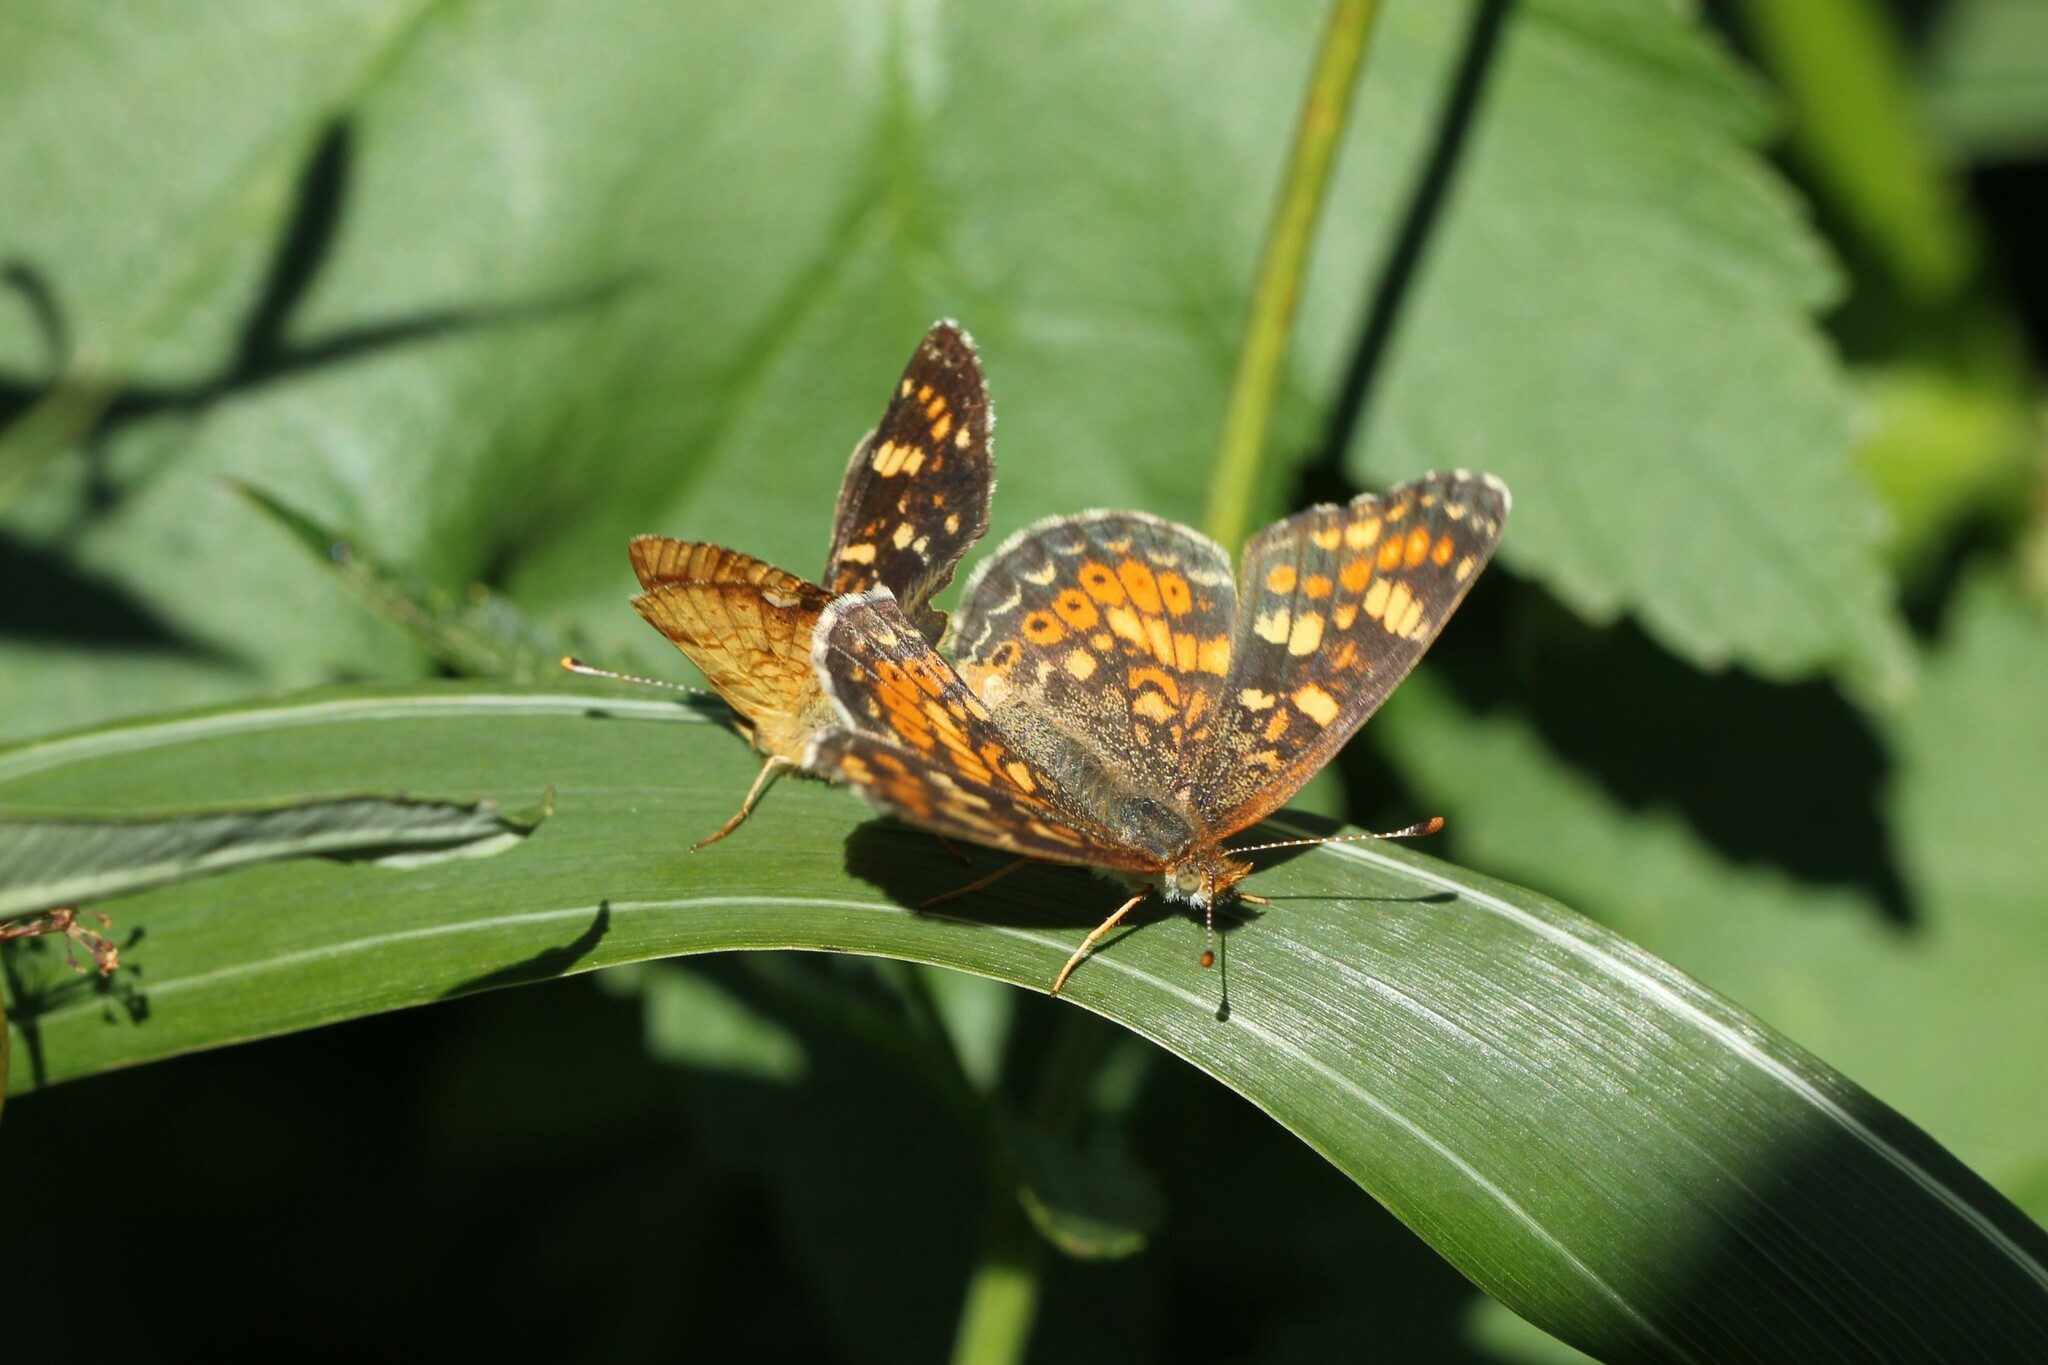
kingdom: Animalia
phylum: Arthropoda
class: Insecta
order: Lepidoptera
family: Nymphalidae
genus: Phyciodes
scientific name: Phyciodes tharos
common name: Pearl crescent
